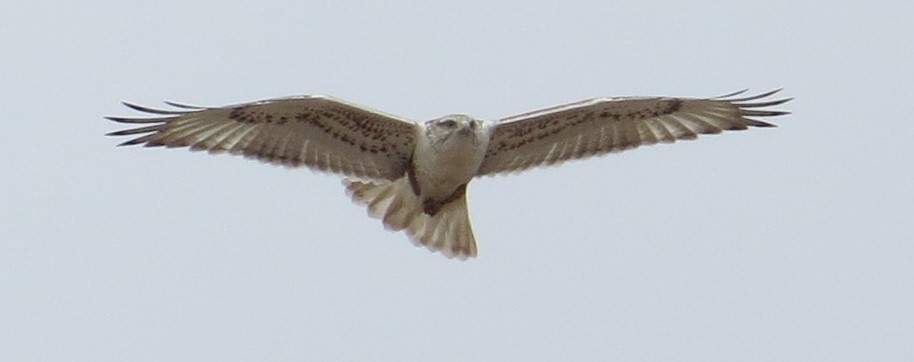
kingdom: Animalia
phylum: Chordata
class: Aves
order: Accipitriformes
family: Accipitridae
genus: Buteo
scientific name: Buteo regalis
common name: Ferruginous hawk
